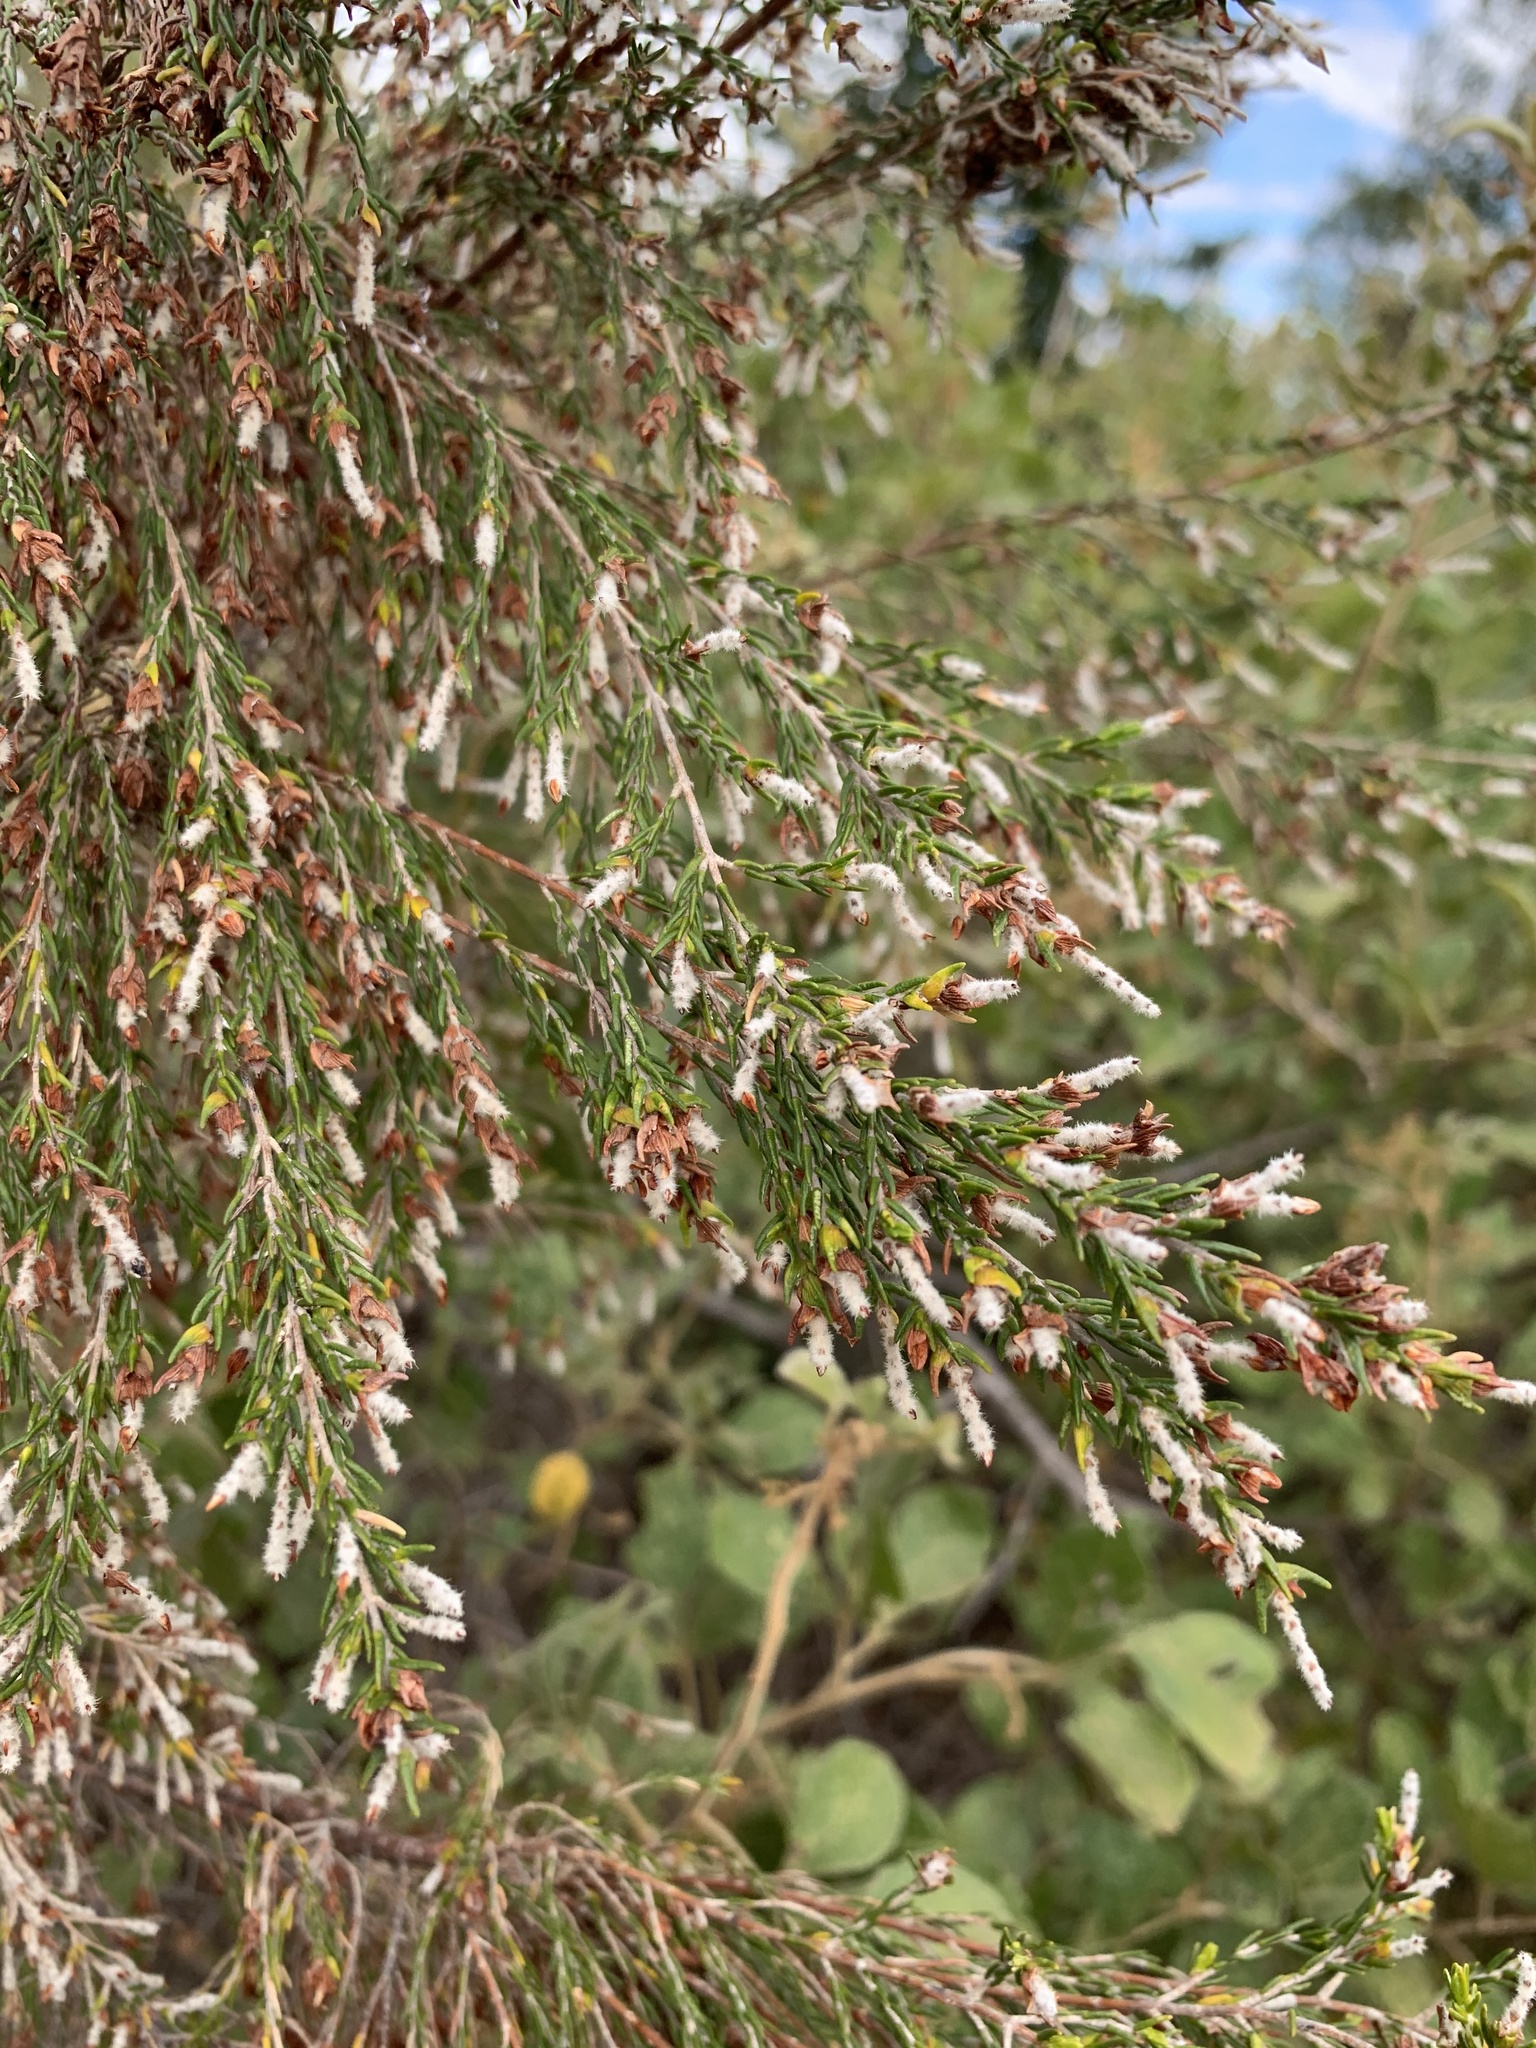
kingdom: Plantae
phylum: Tracheophyta
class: Magnoliopsida
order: Malvales
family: Thymelaeaceae
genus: Passerina
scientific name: Passerina corymbosa
